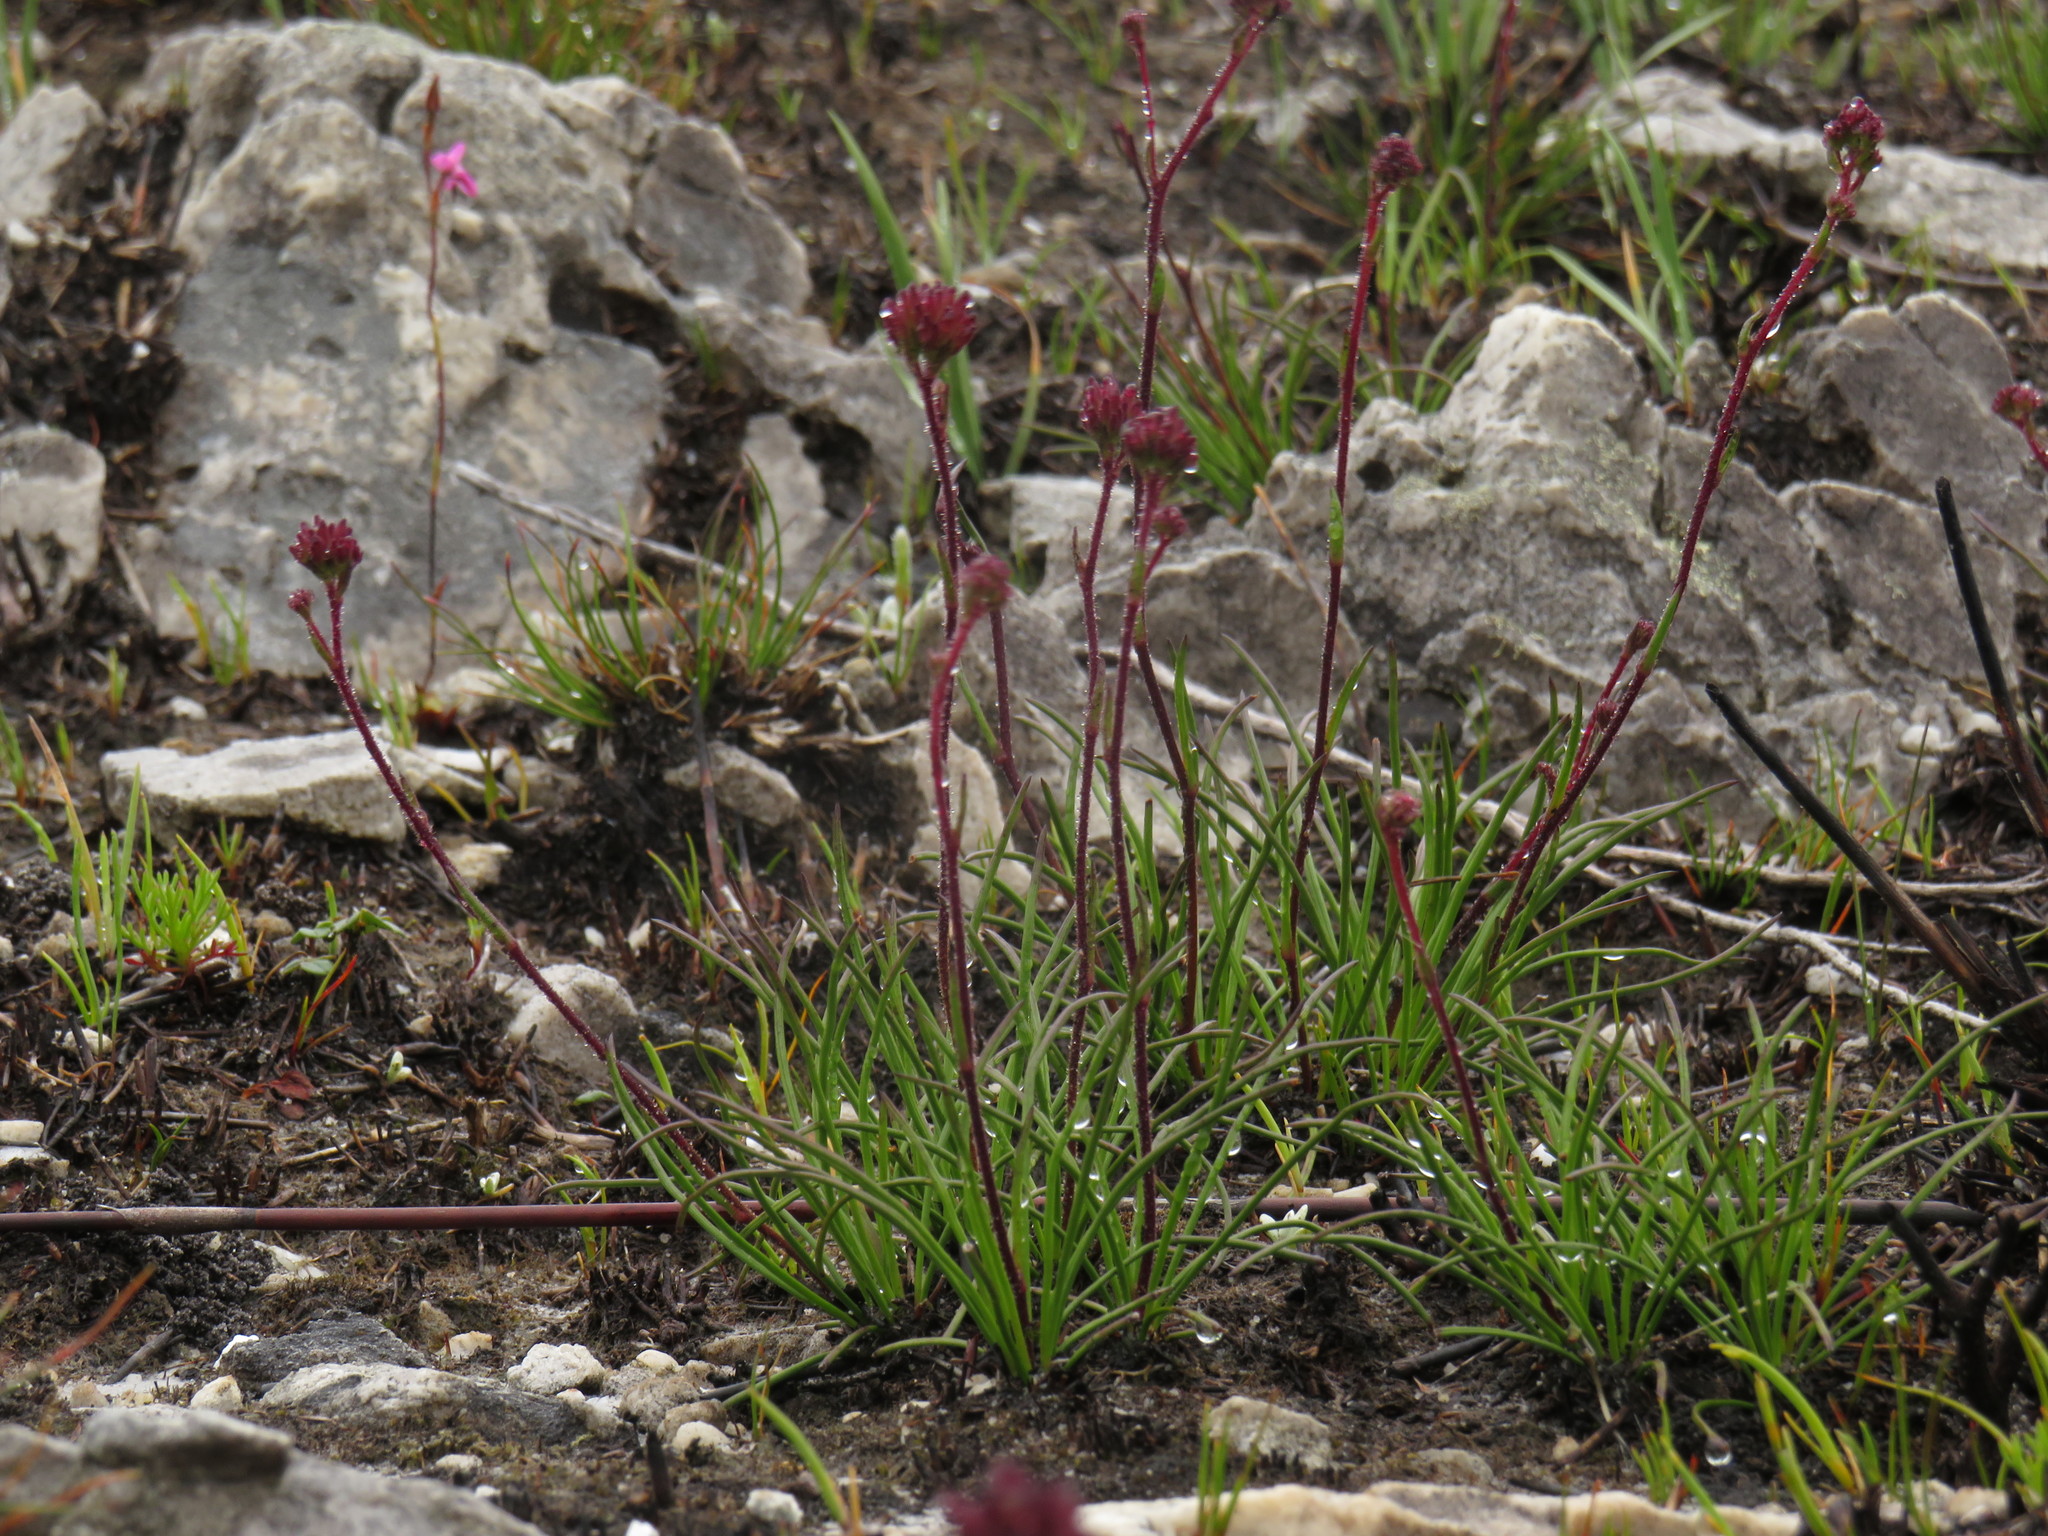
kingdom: Plantae
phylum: Tracheophyta
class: Liliopsida
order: Asparagales
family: Orchidaceae
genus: Disa
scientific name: Disa inflexa
